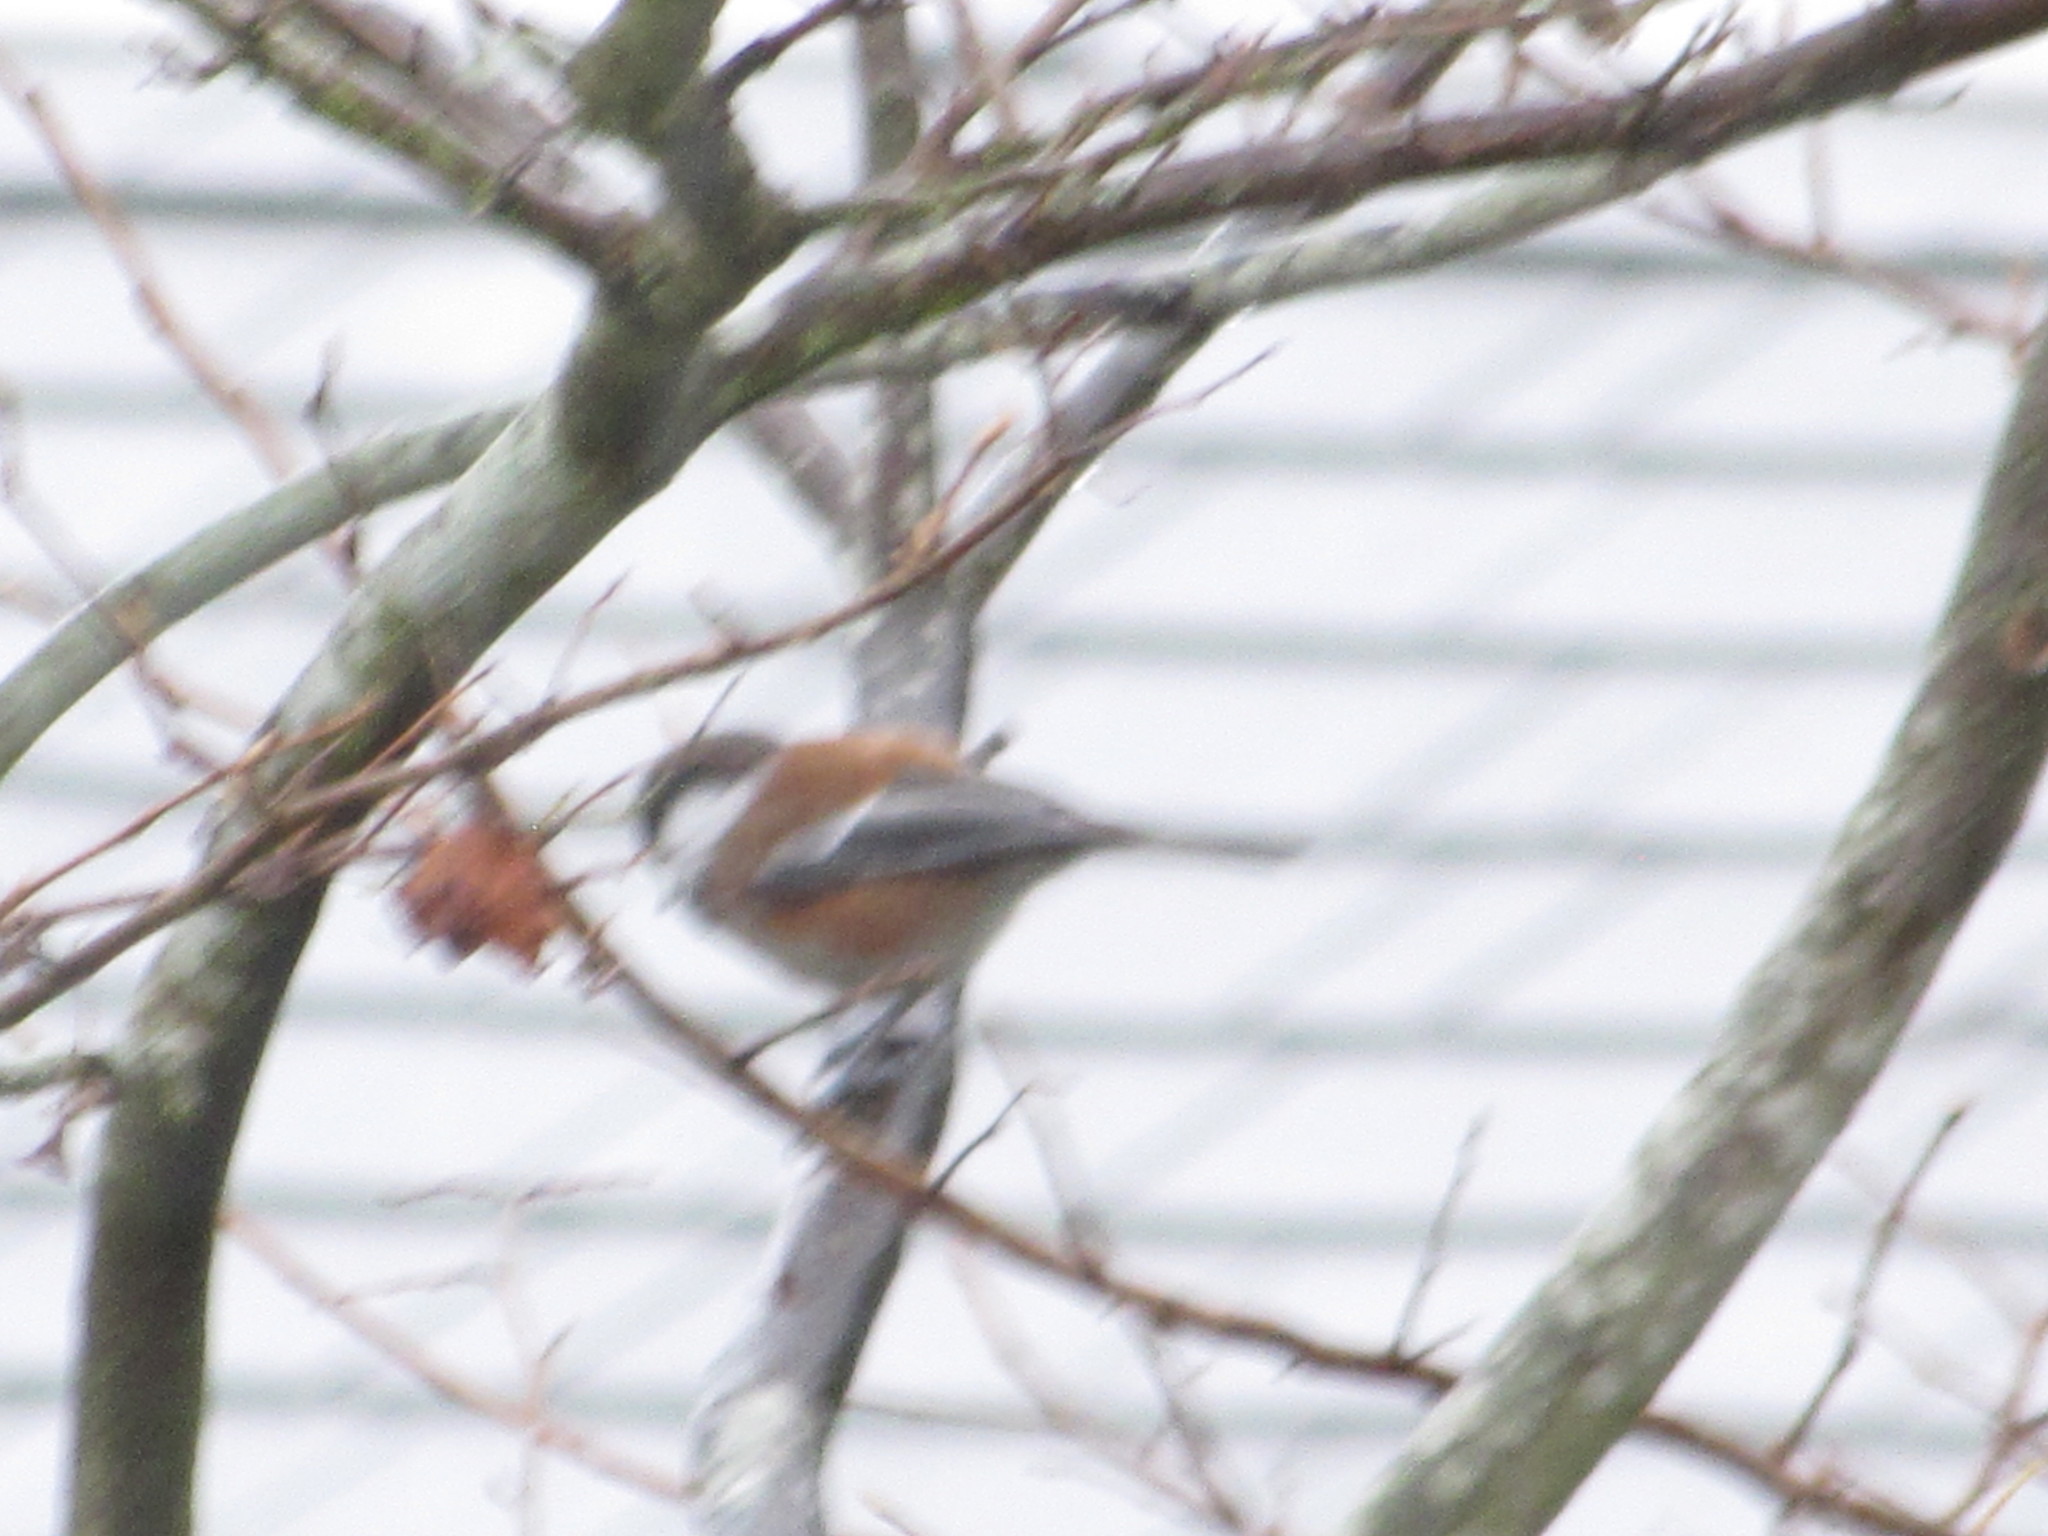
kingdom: Animalia
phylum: Chordata
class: Aves
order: Passeriformes
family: Paridae
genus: Poecile
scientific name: Poecile rufescens
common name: Chestnut-backed chickadee
